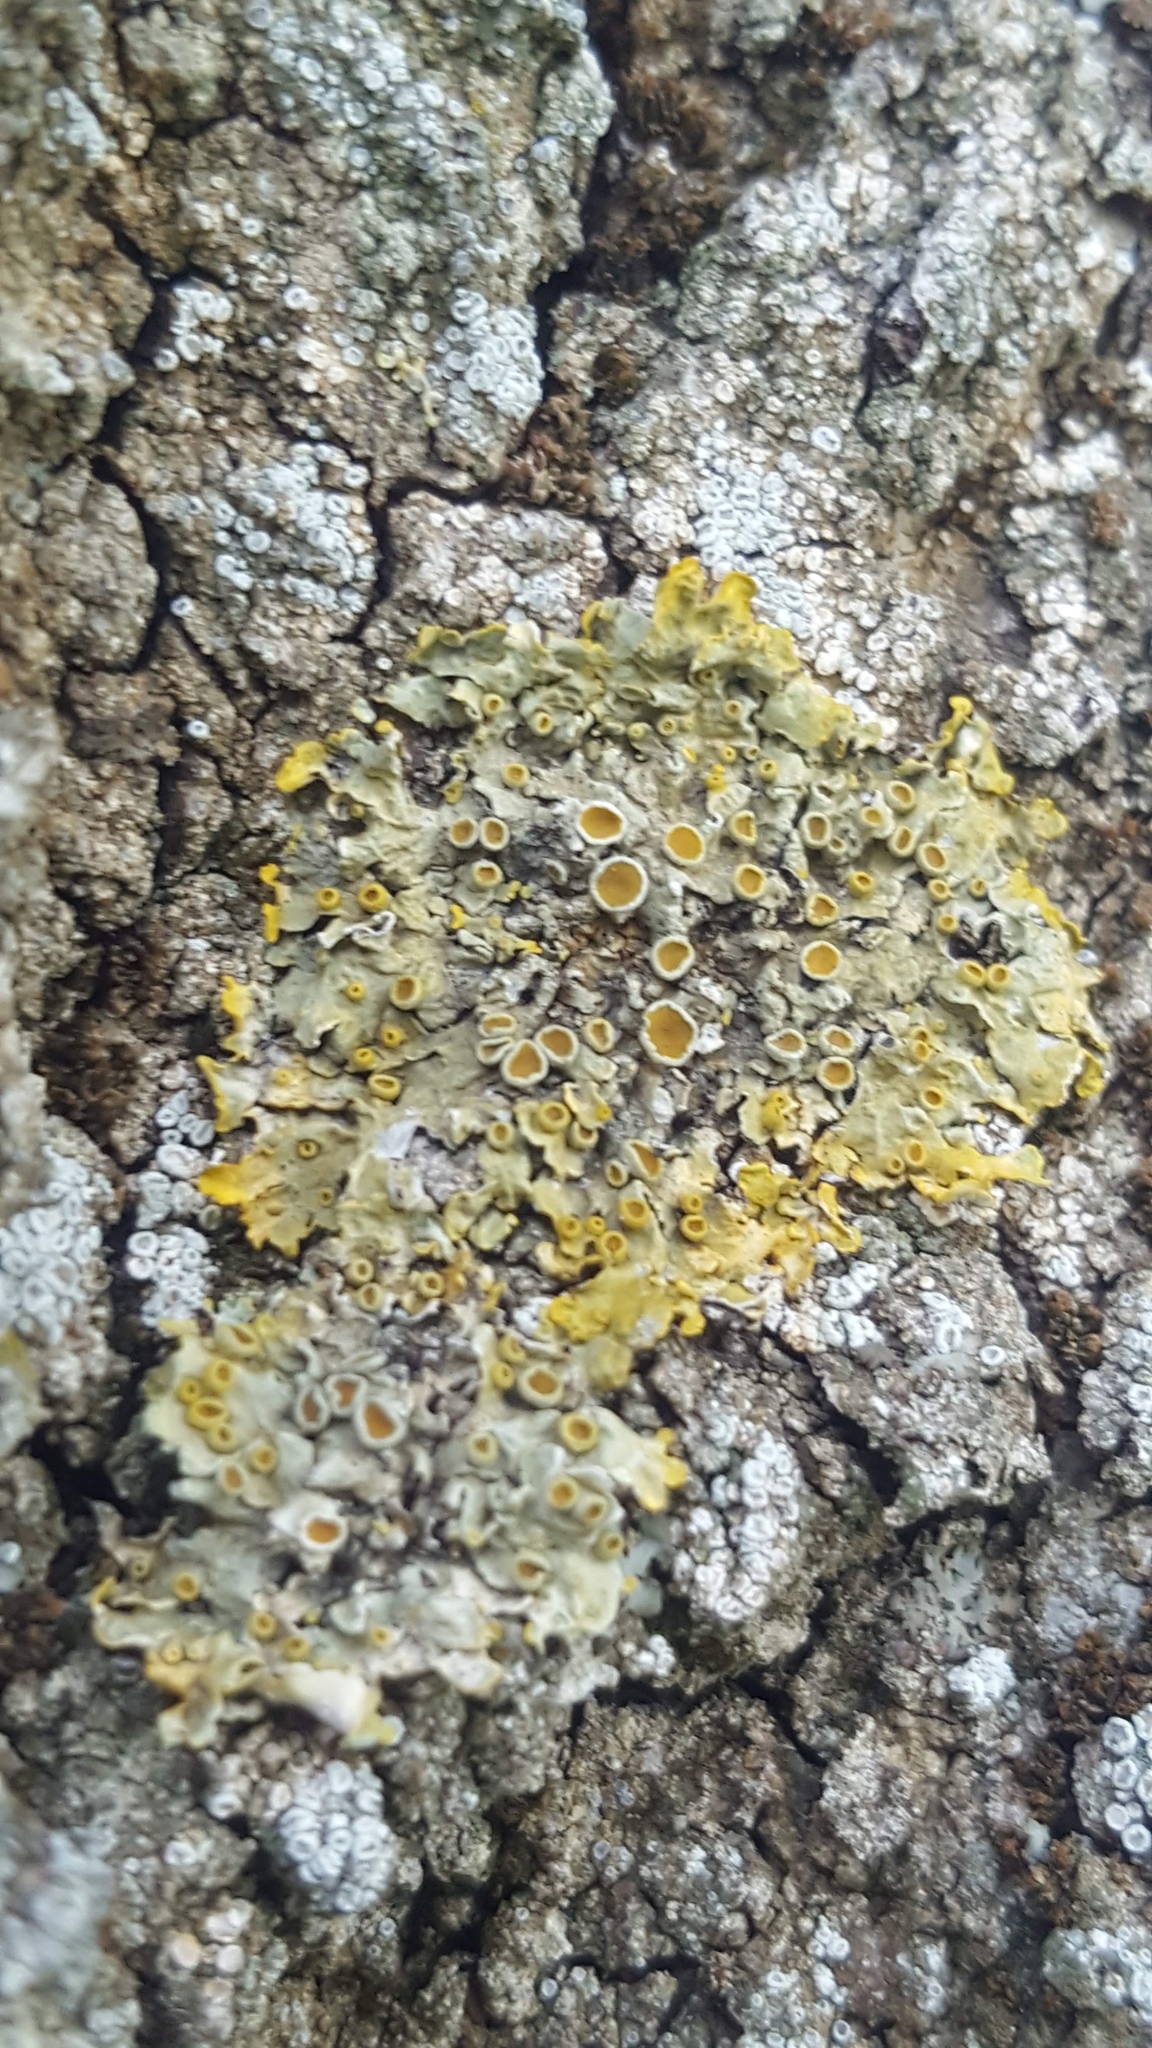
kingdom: Fungi
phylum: Ascomycota
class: Lecanoromycetes
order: Teloschistales
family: Teloschistaceae
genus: Xanthoria
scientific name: Xanthoria parietina
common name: Common orange lichen
